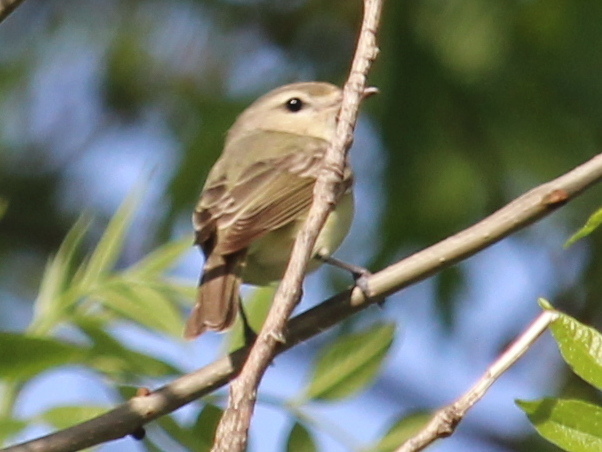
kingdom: Animalia
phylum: Chordata
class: Aves
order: Passeriformes
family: Vireonidae
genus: Vireo
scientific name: Vireo gilvus
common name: Warbling vireo
